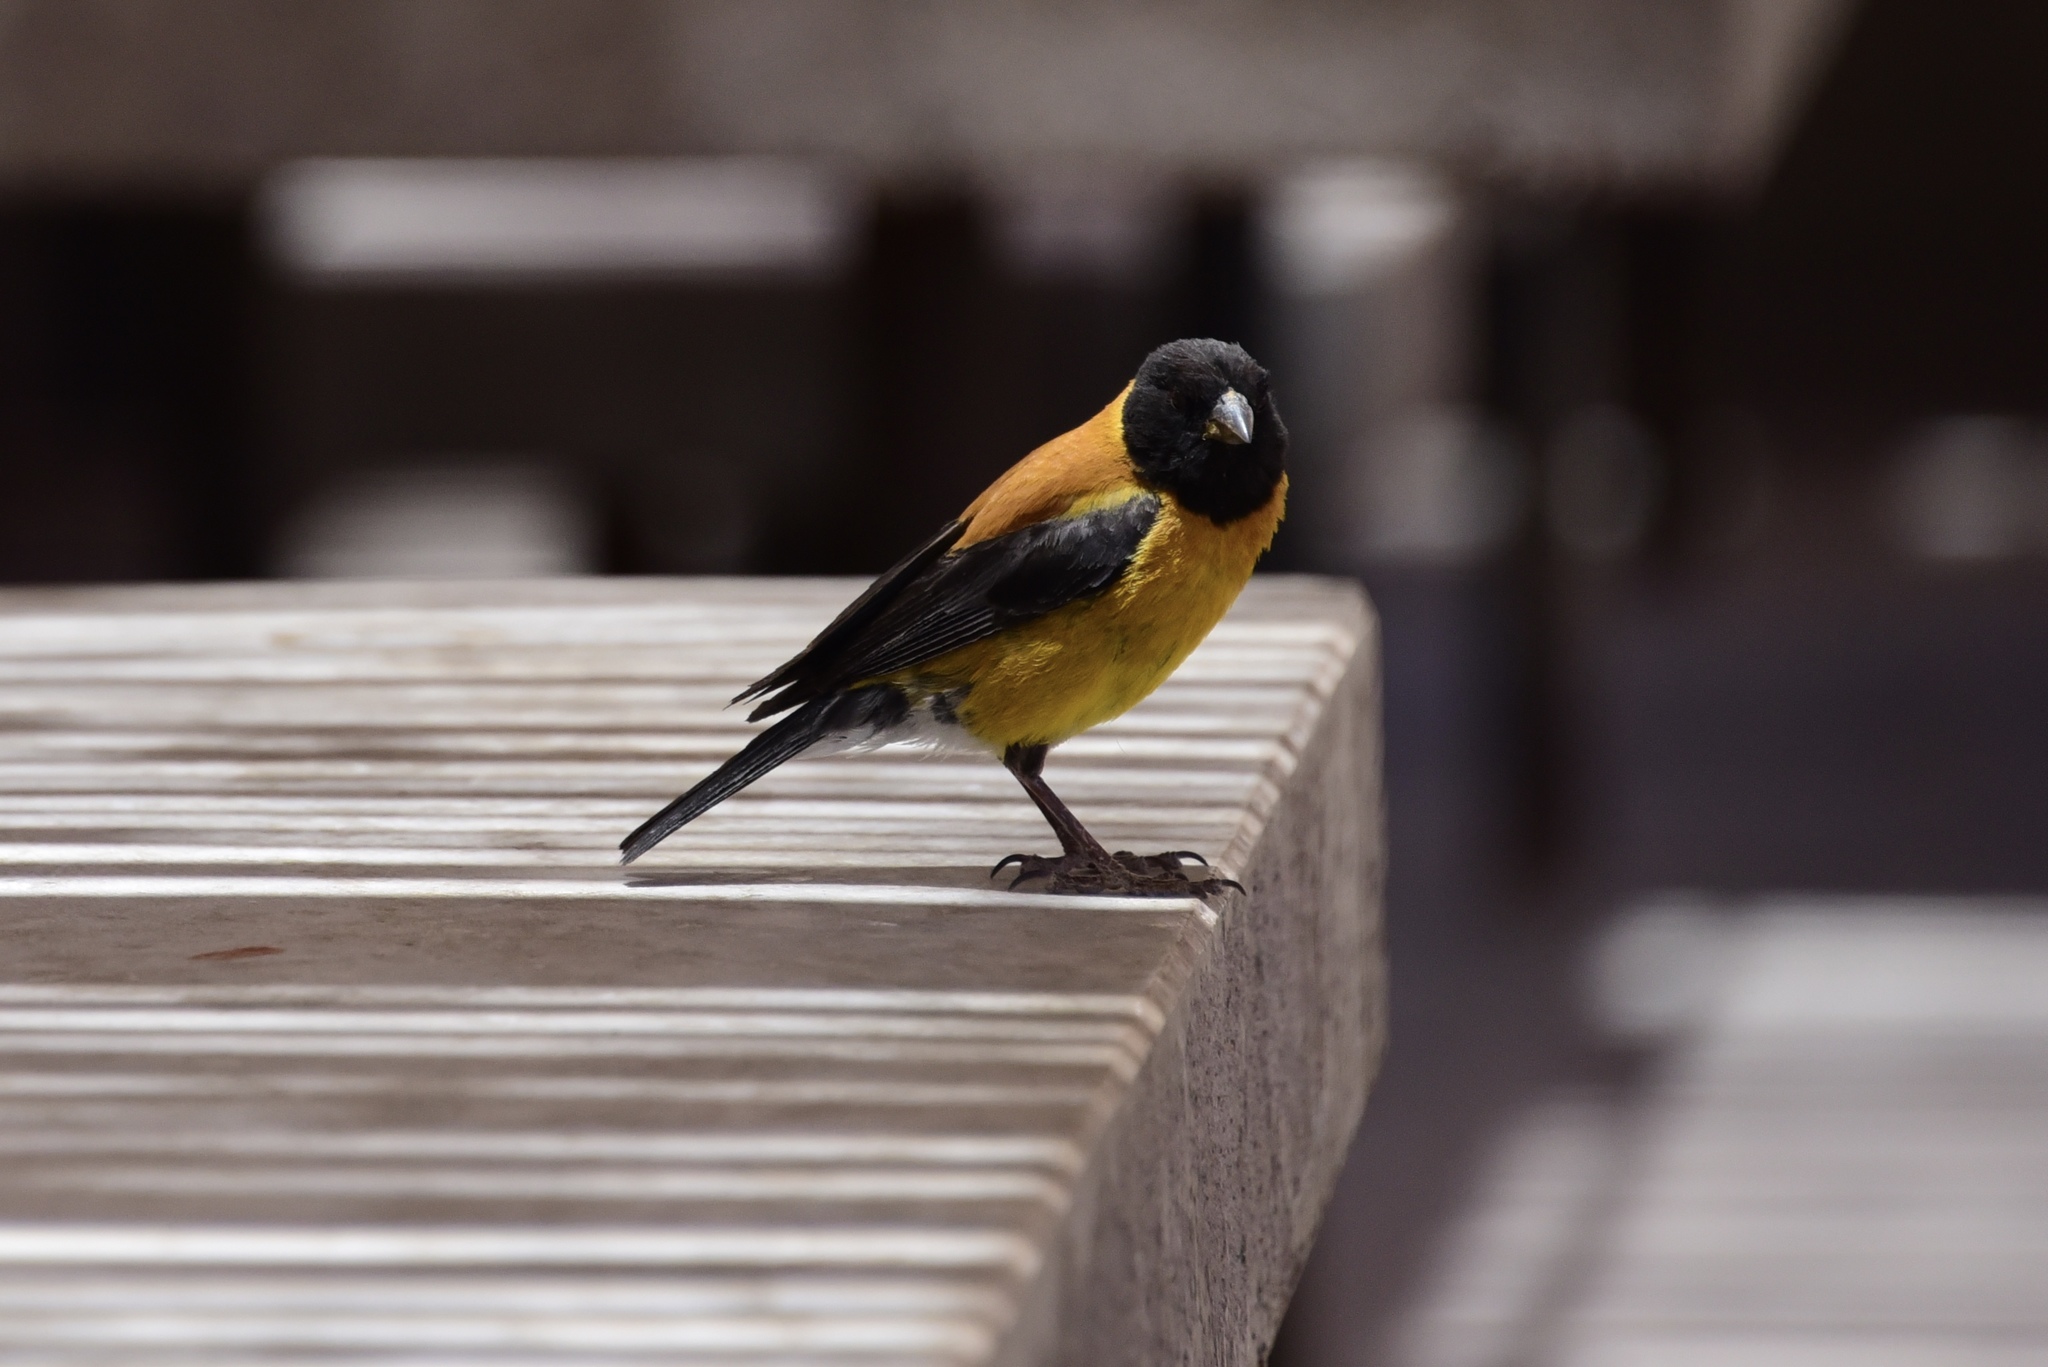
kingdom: Animalia
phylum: Chordata
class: Aves
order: Passeriformes
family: Thraupidae
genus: Phrygilus
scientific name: Phrygilus atriceps
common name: Black-hooded sierra finch
